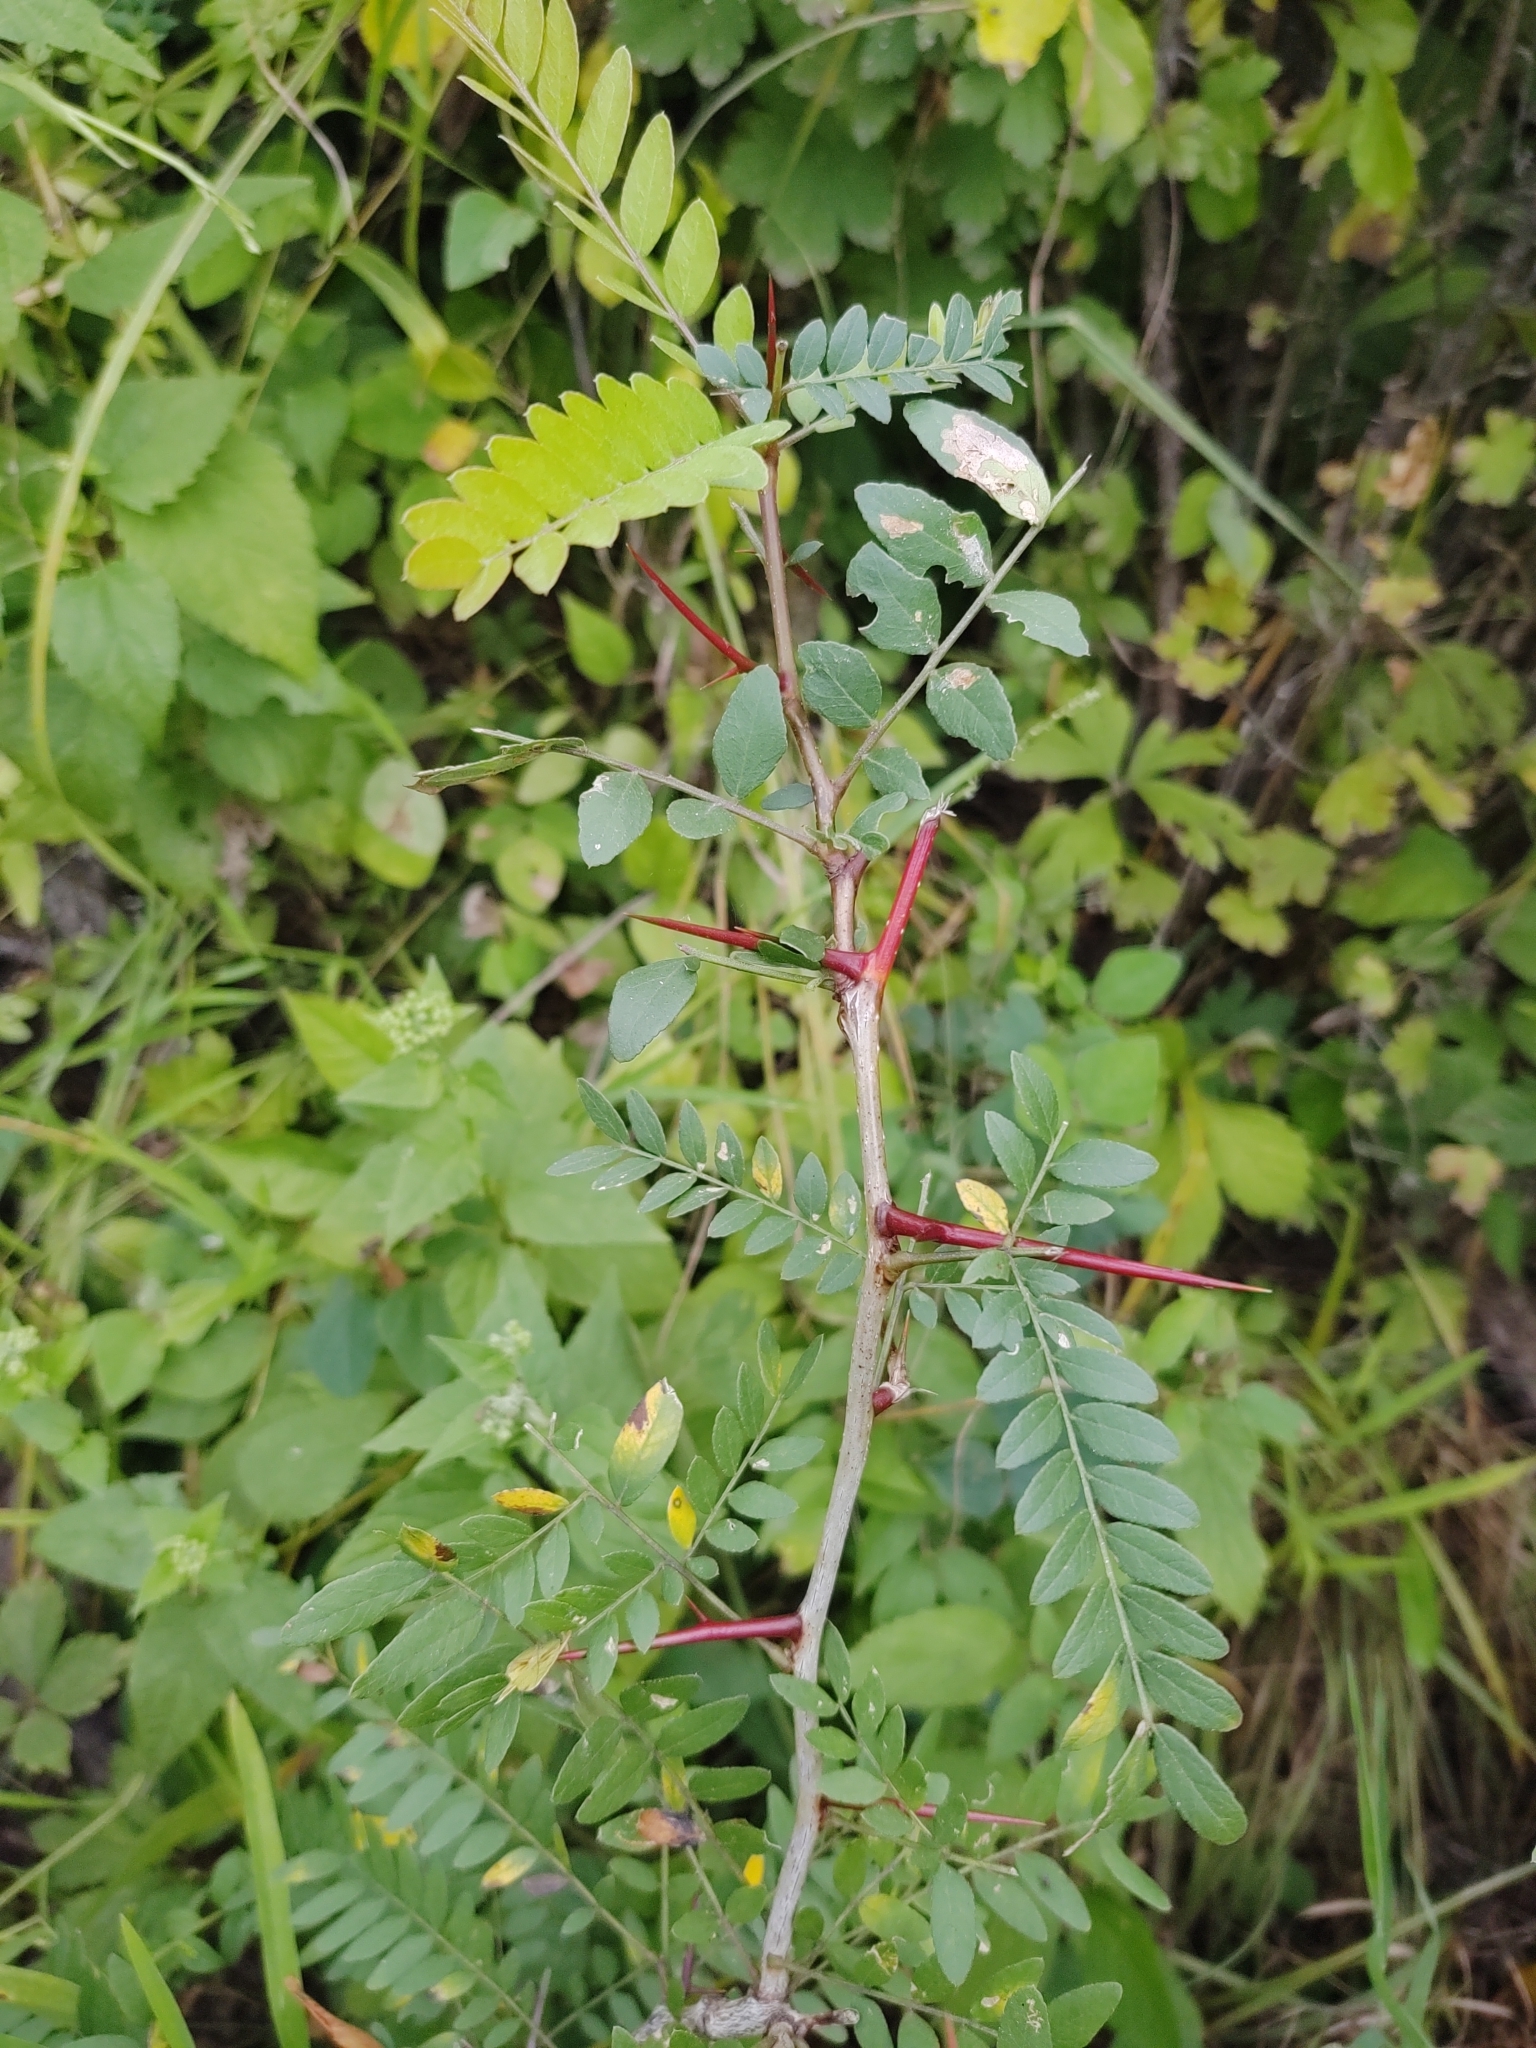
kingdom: Plantae
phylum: Tracheophyta
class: Magnoliopsida
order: Fabales
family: Fabaceae
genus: Gleditsia
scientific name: Gleditsia triacanthos
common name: Common honeylocust
